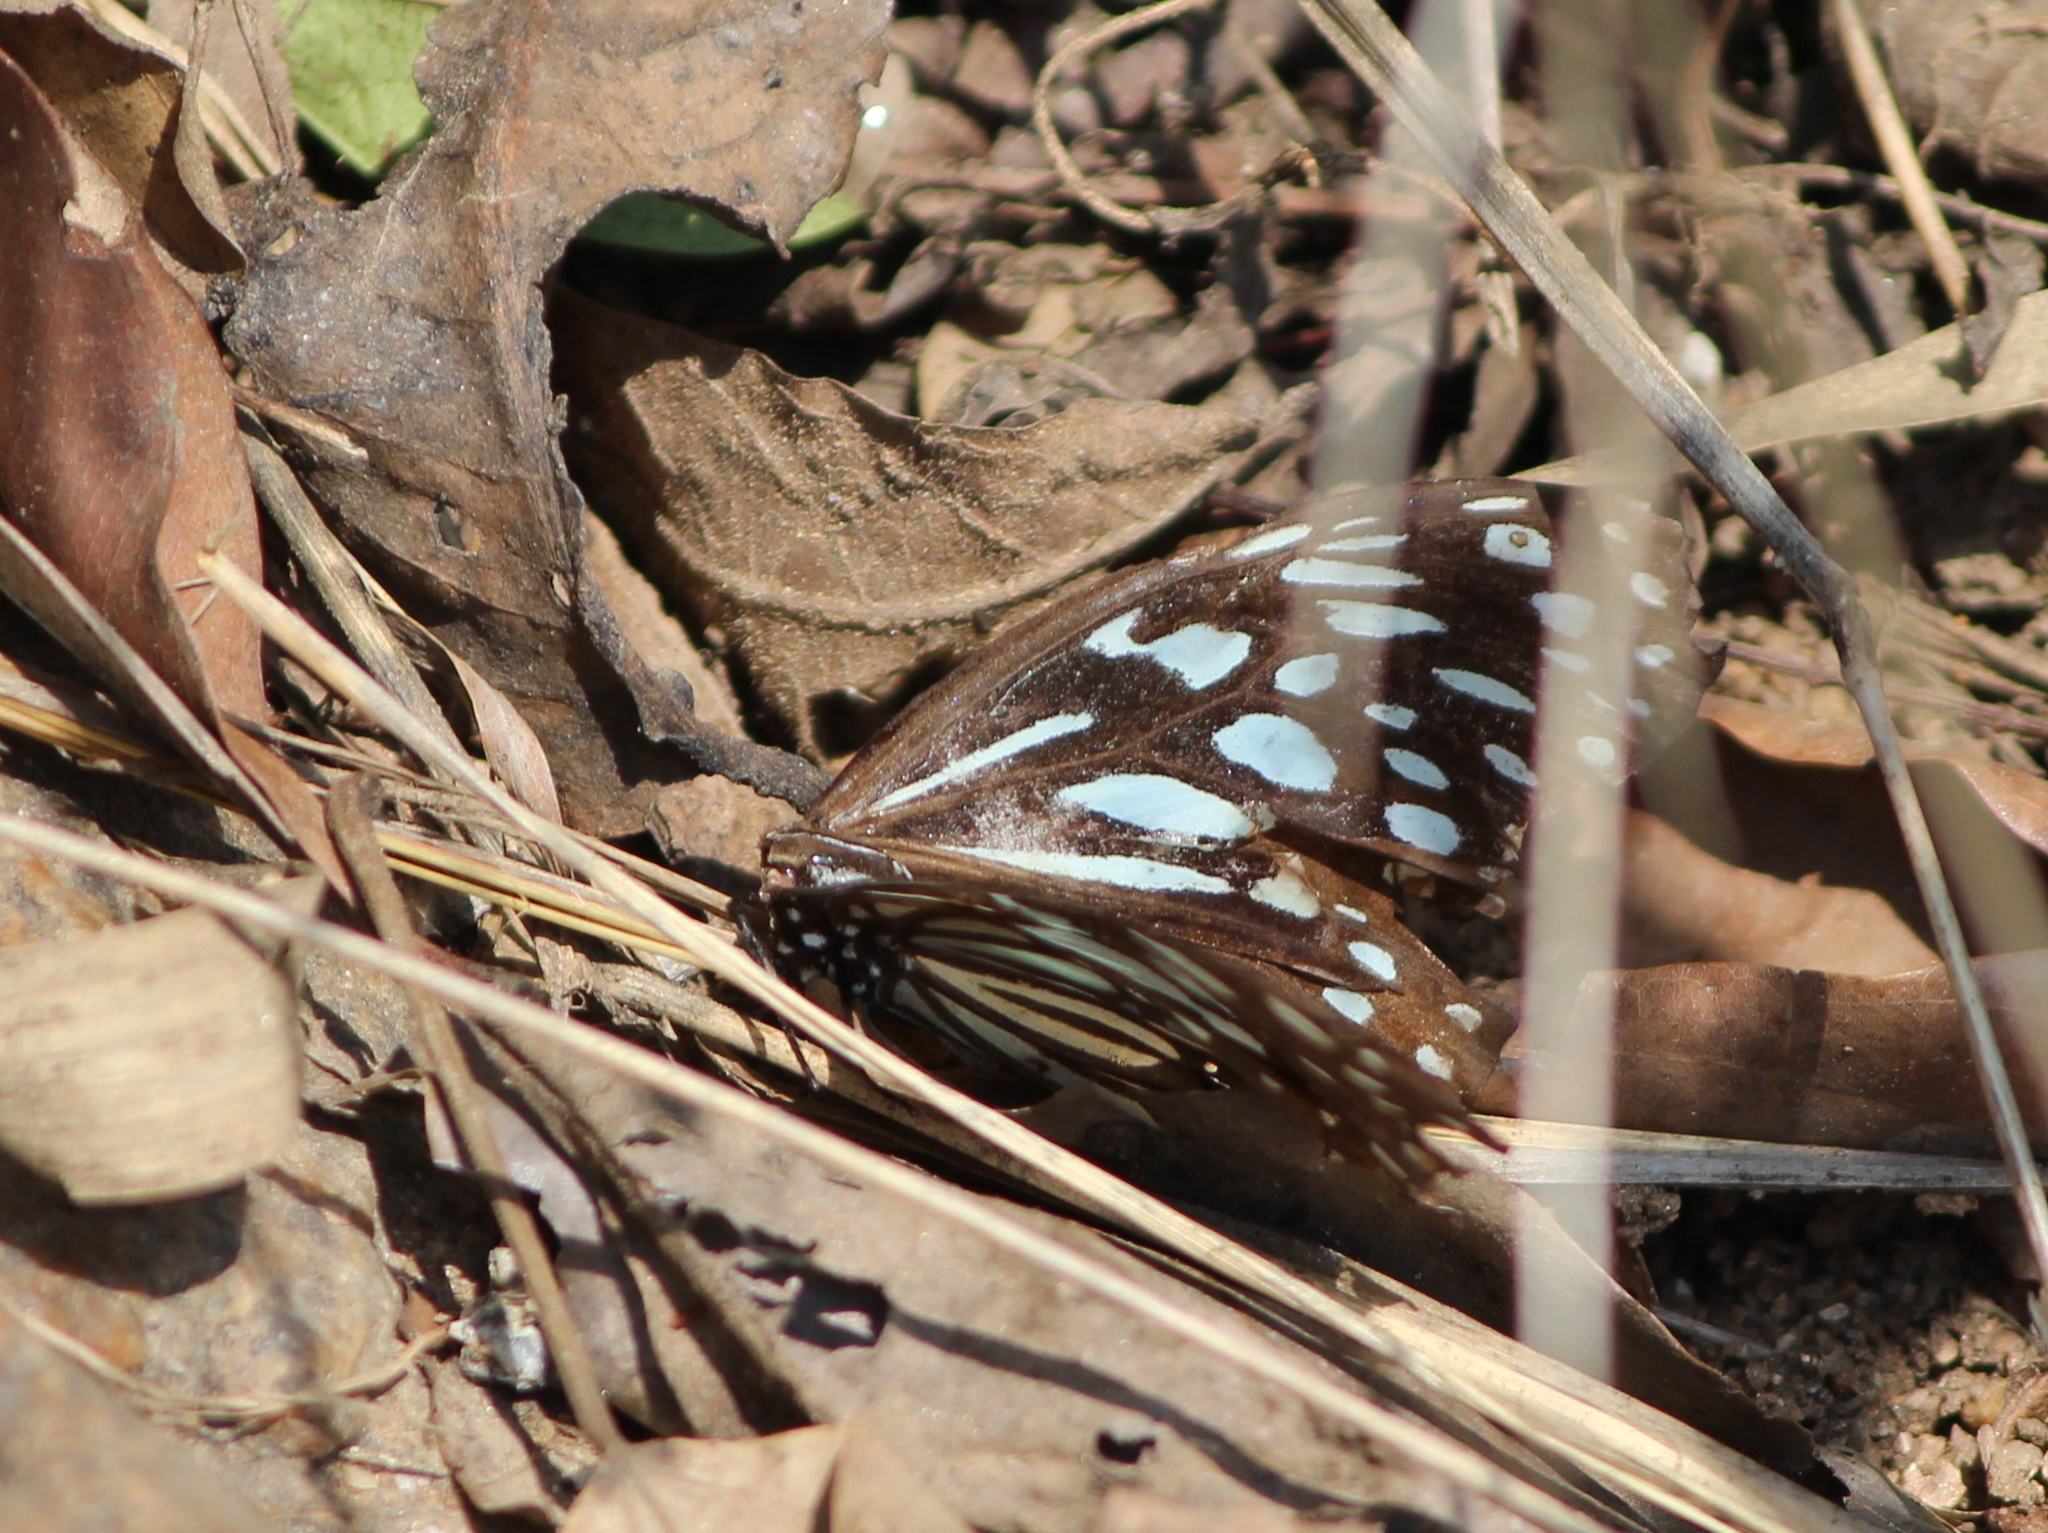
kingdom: Animalia
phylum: Arthropoda
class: Insecta
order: Lepidoptera
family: Nymphalidae
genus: Tirumala
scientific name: Tirumala septentrionis
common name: Dark blue tiger butterfly
